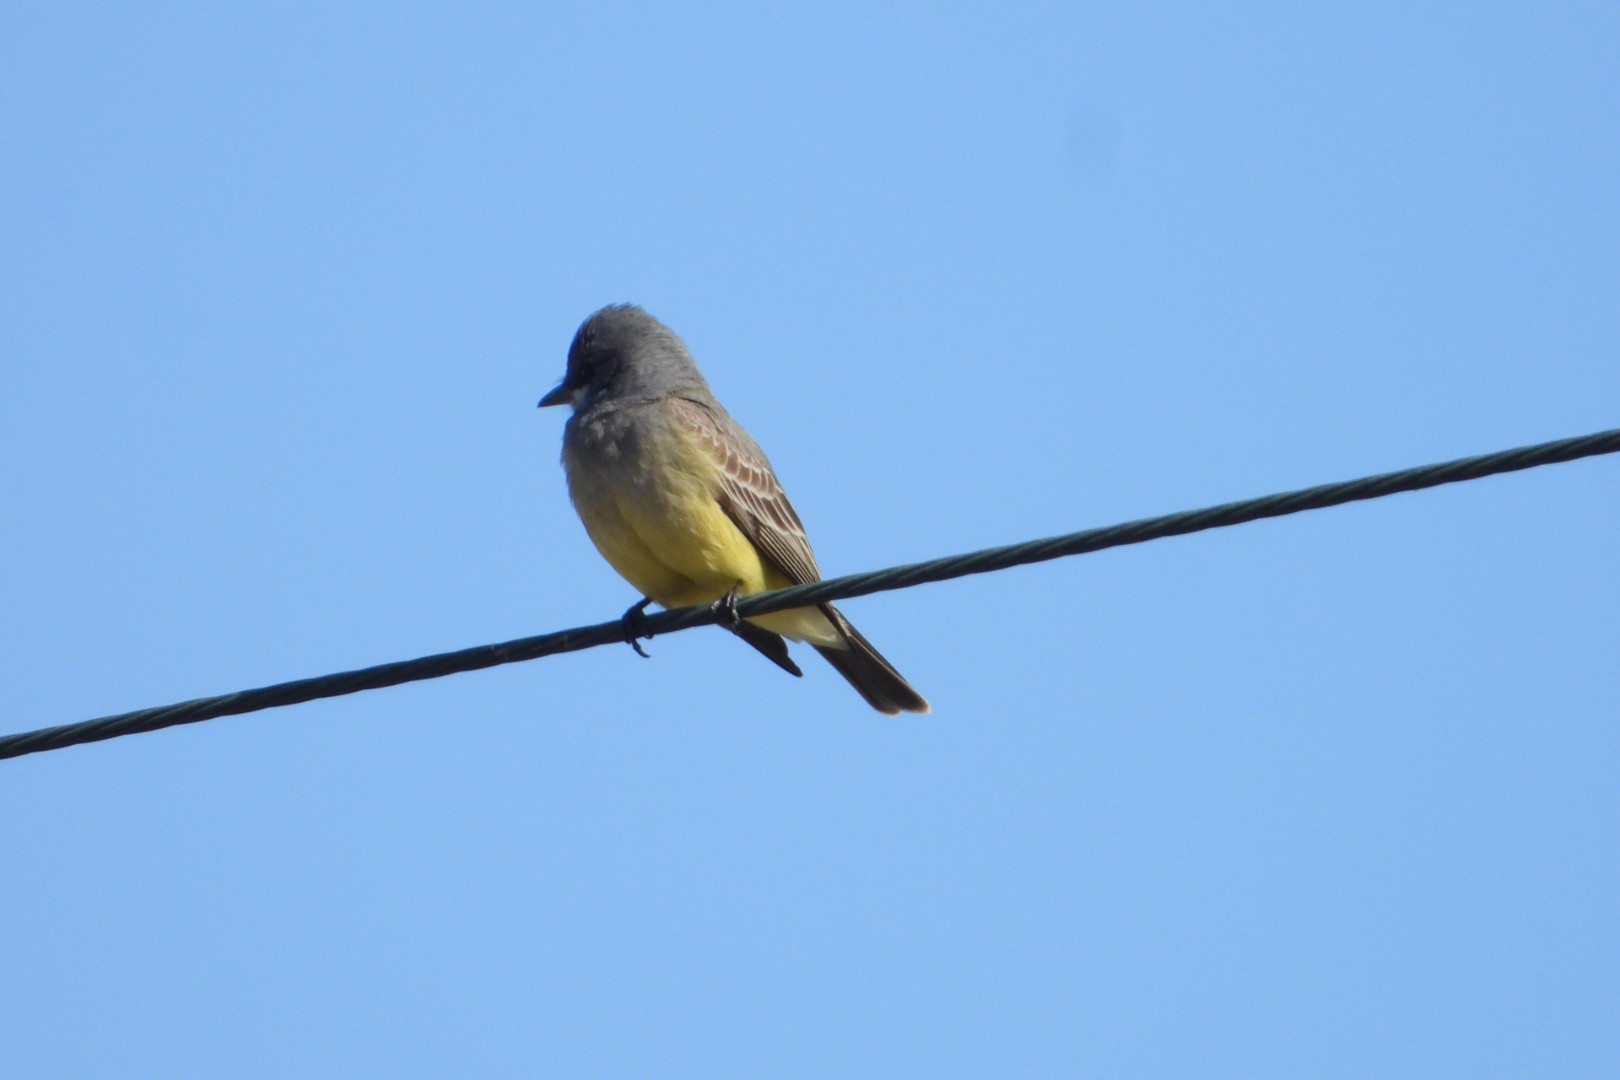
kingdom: Animalia
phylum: Chordata
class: Aves
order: Passeriformes
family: Tyrannidae
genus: Tyrannus
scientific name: Tyrannus vociferans
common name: Cassin's kingbird
